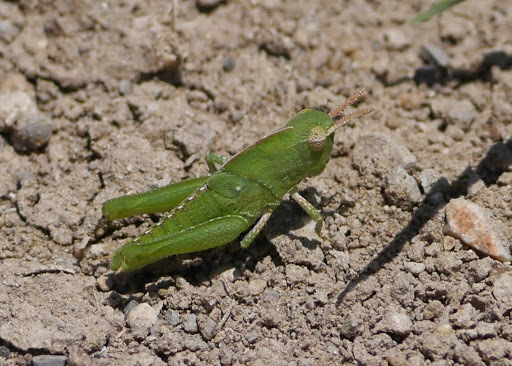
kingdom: Animalia
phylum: Arthropoda
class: Insecta
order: Orthoptera
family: Acrididae
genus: Chortophaga
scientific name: Chortophaga viridifasciata
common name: Green-striped grasshopper
